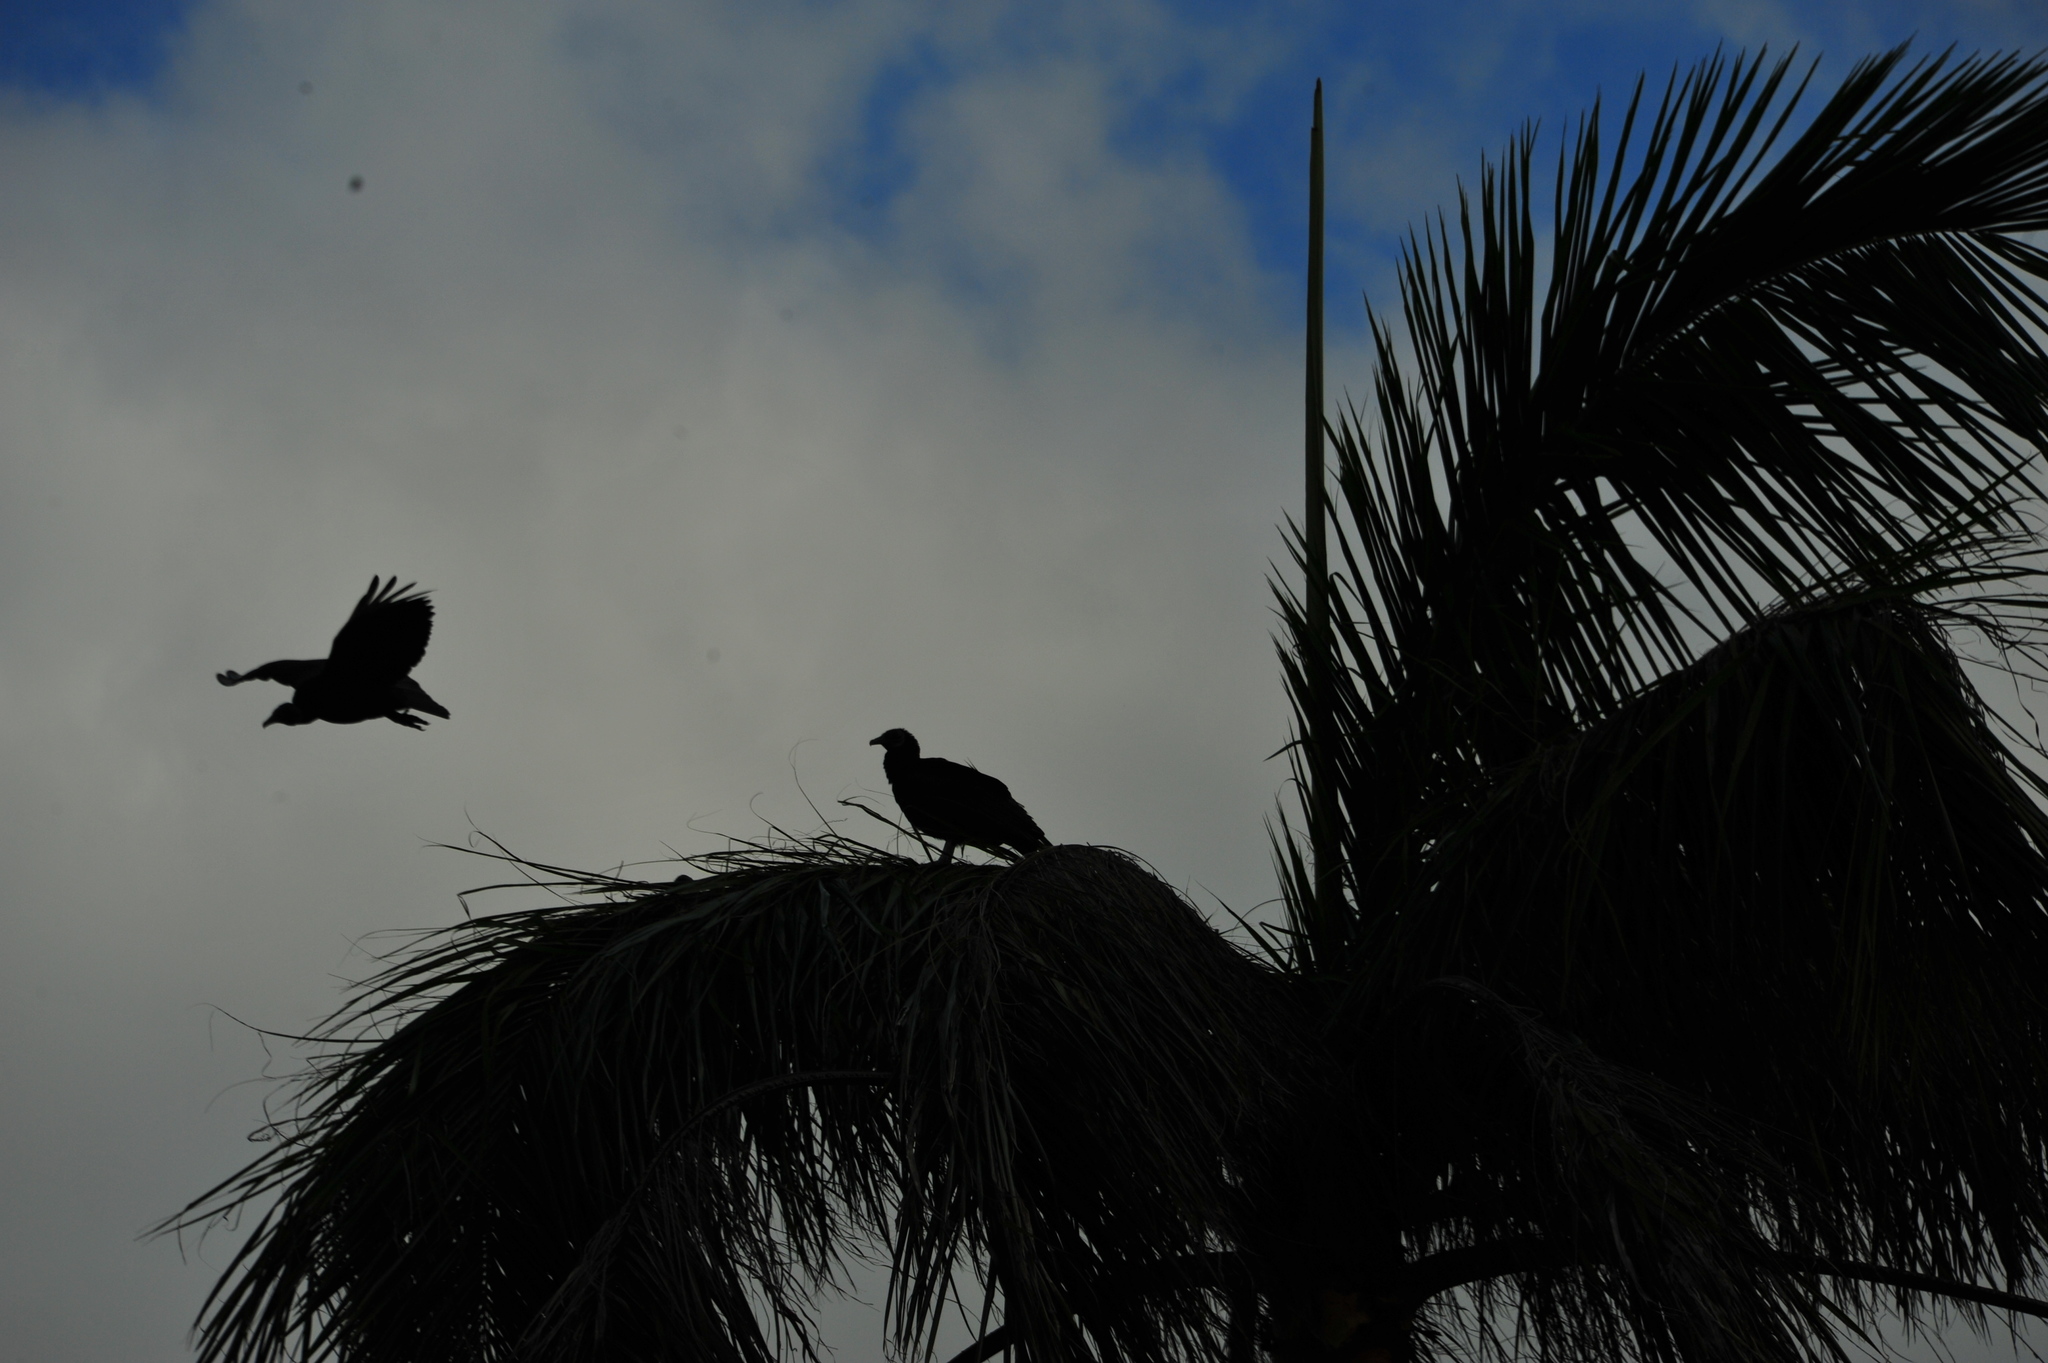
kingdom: Animalia
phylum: Chordata
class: Aves
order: Accipitriformes
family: Cathartidae
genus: Coragyps
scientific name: Coragyps atratus
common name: Black vulture
